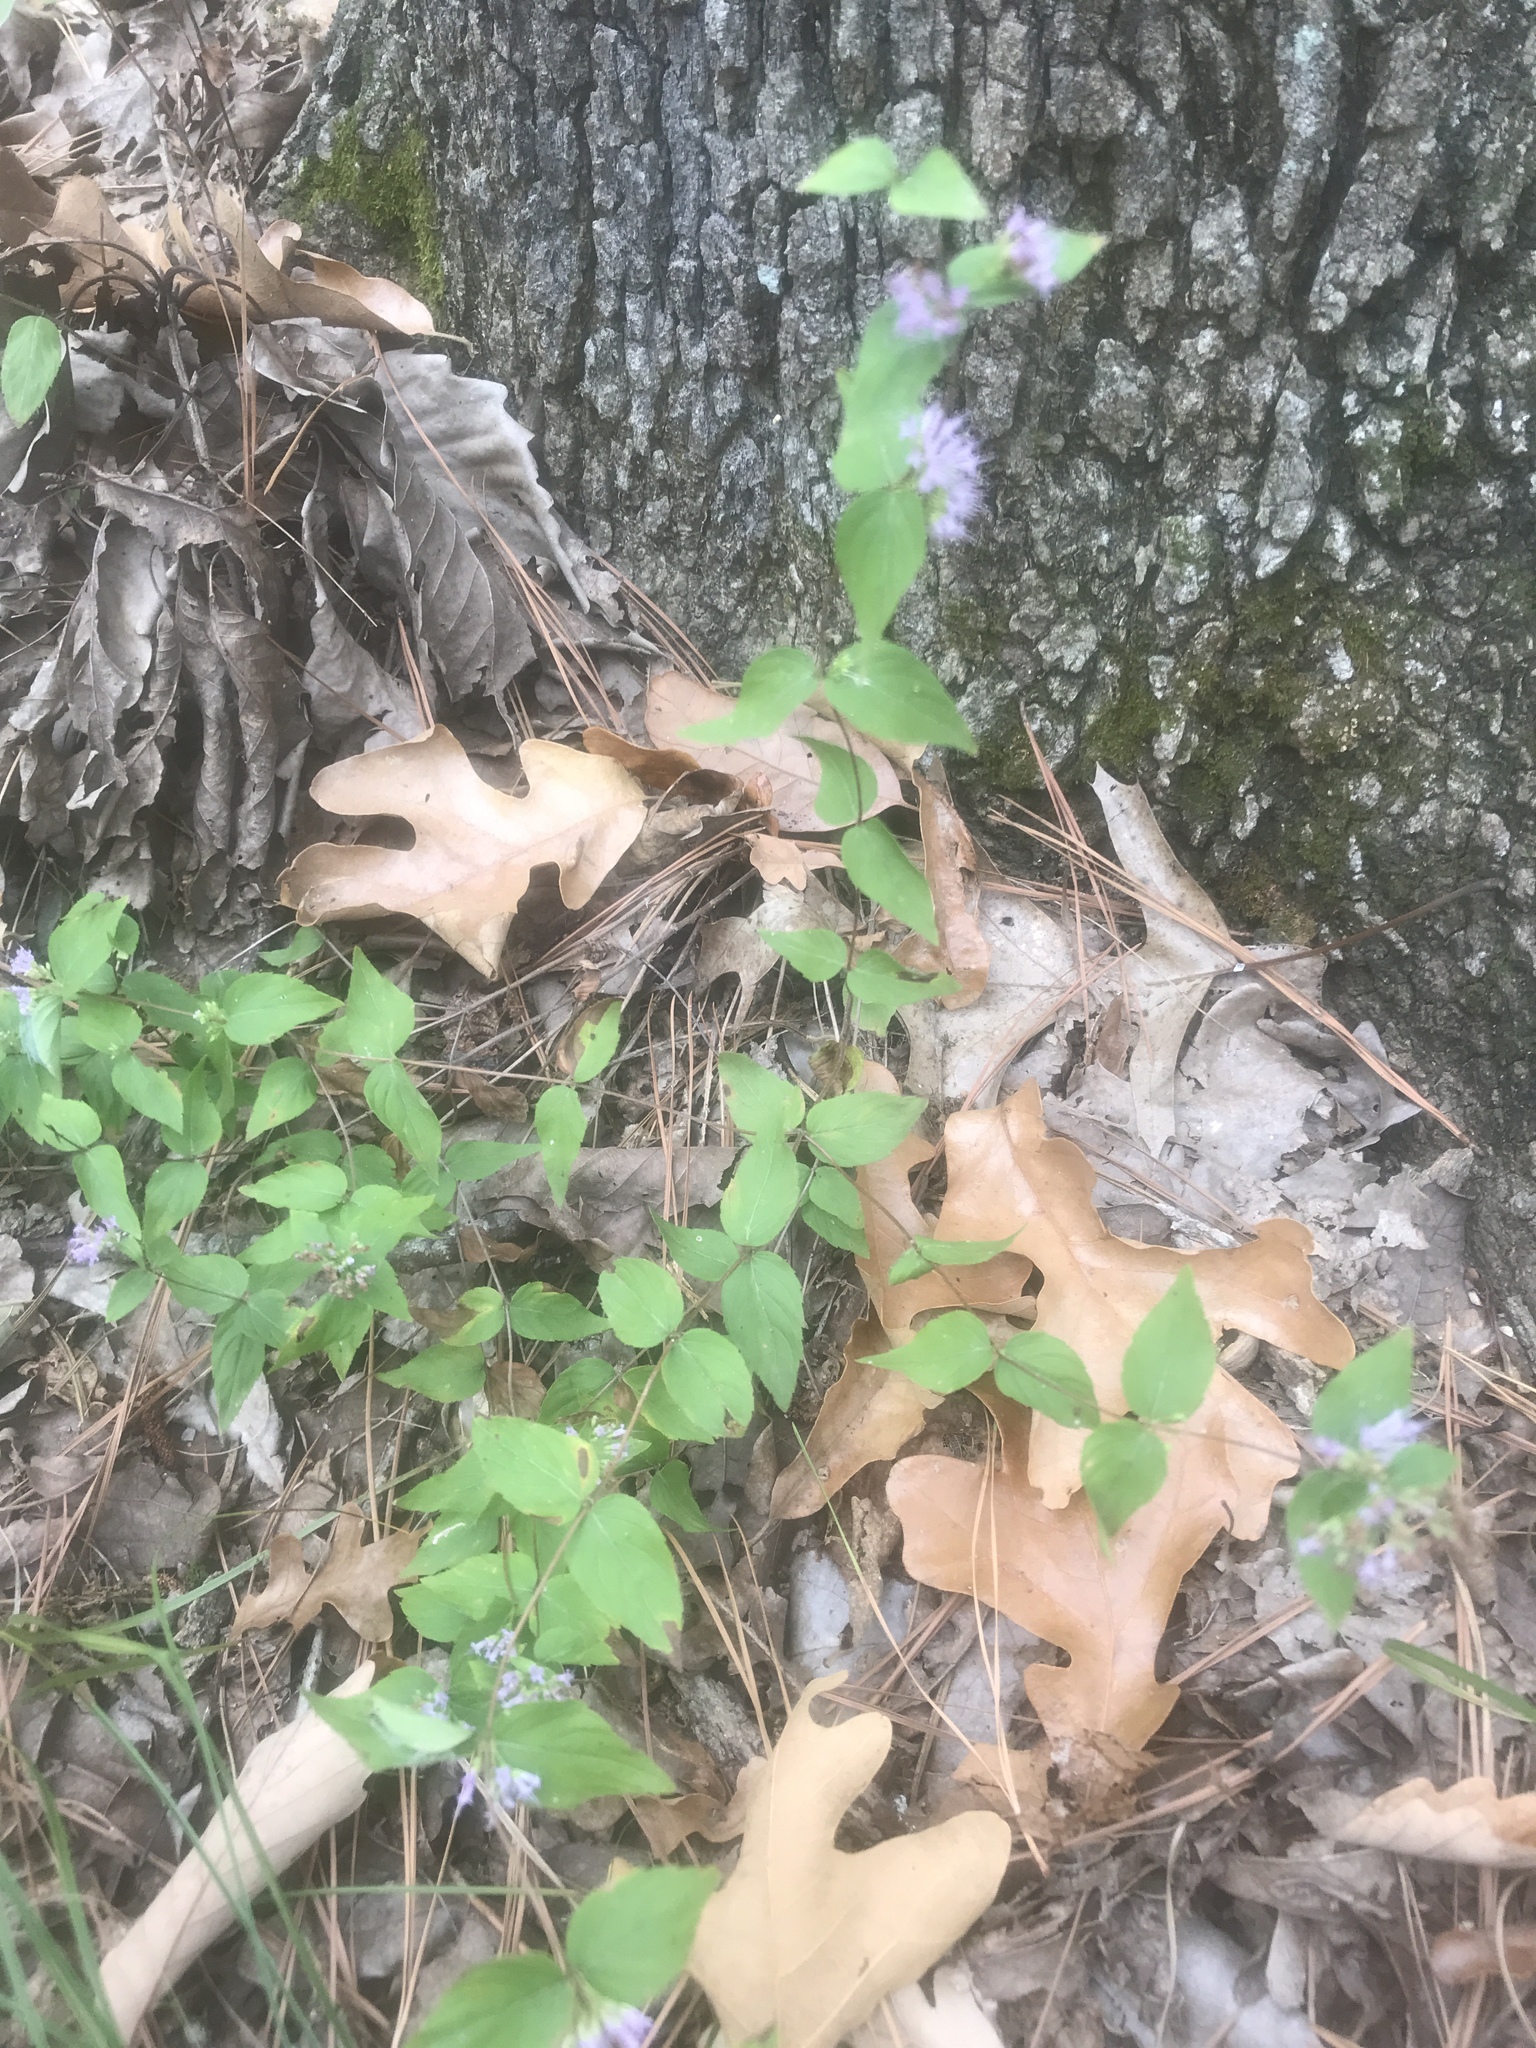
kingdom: Plantae
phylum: Tracheophyta
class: Magnoliopsida
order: Lamiales
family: Lamiaceae
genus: Cunila
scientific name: Cunila origanoides
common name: American dittany
